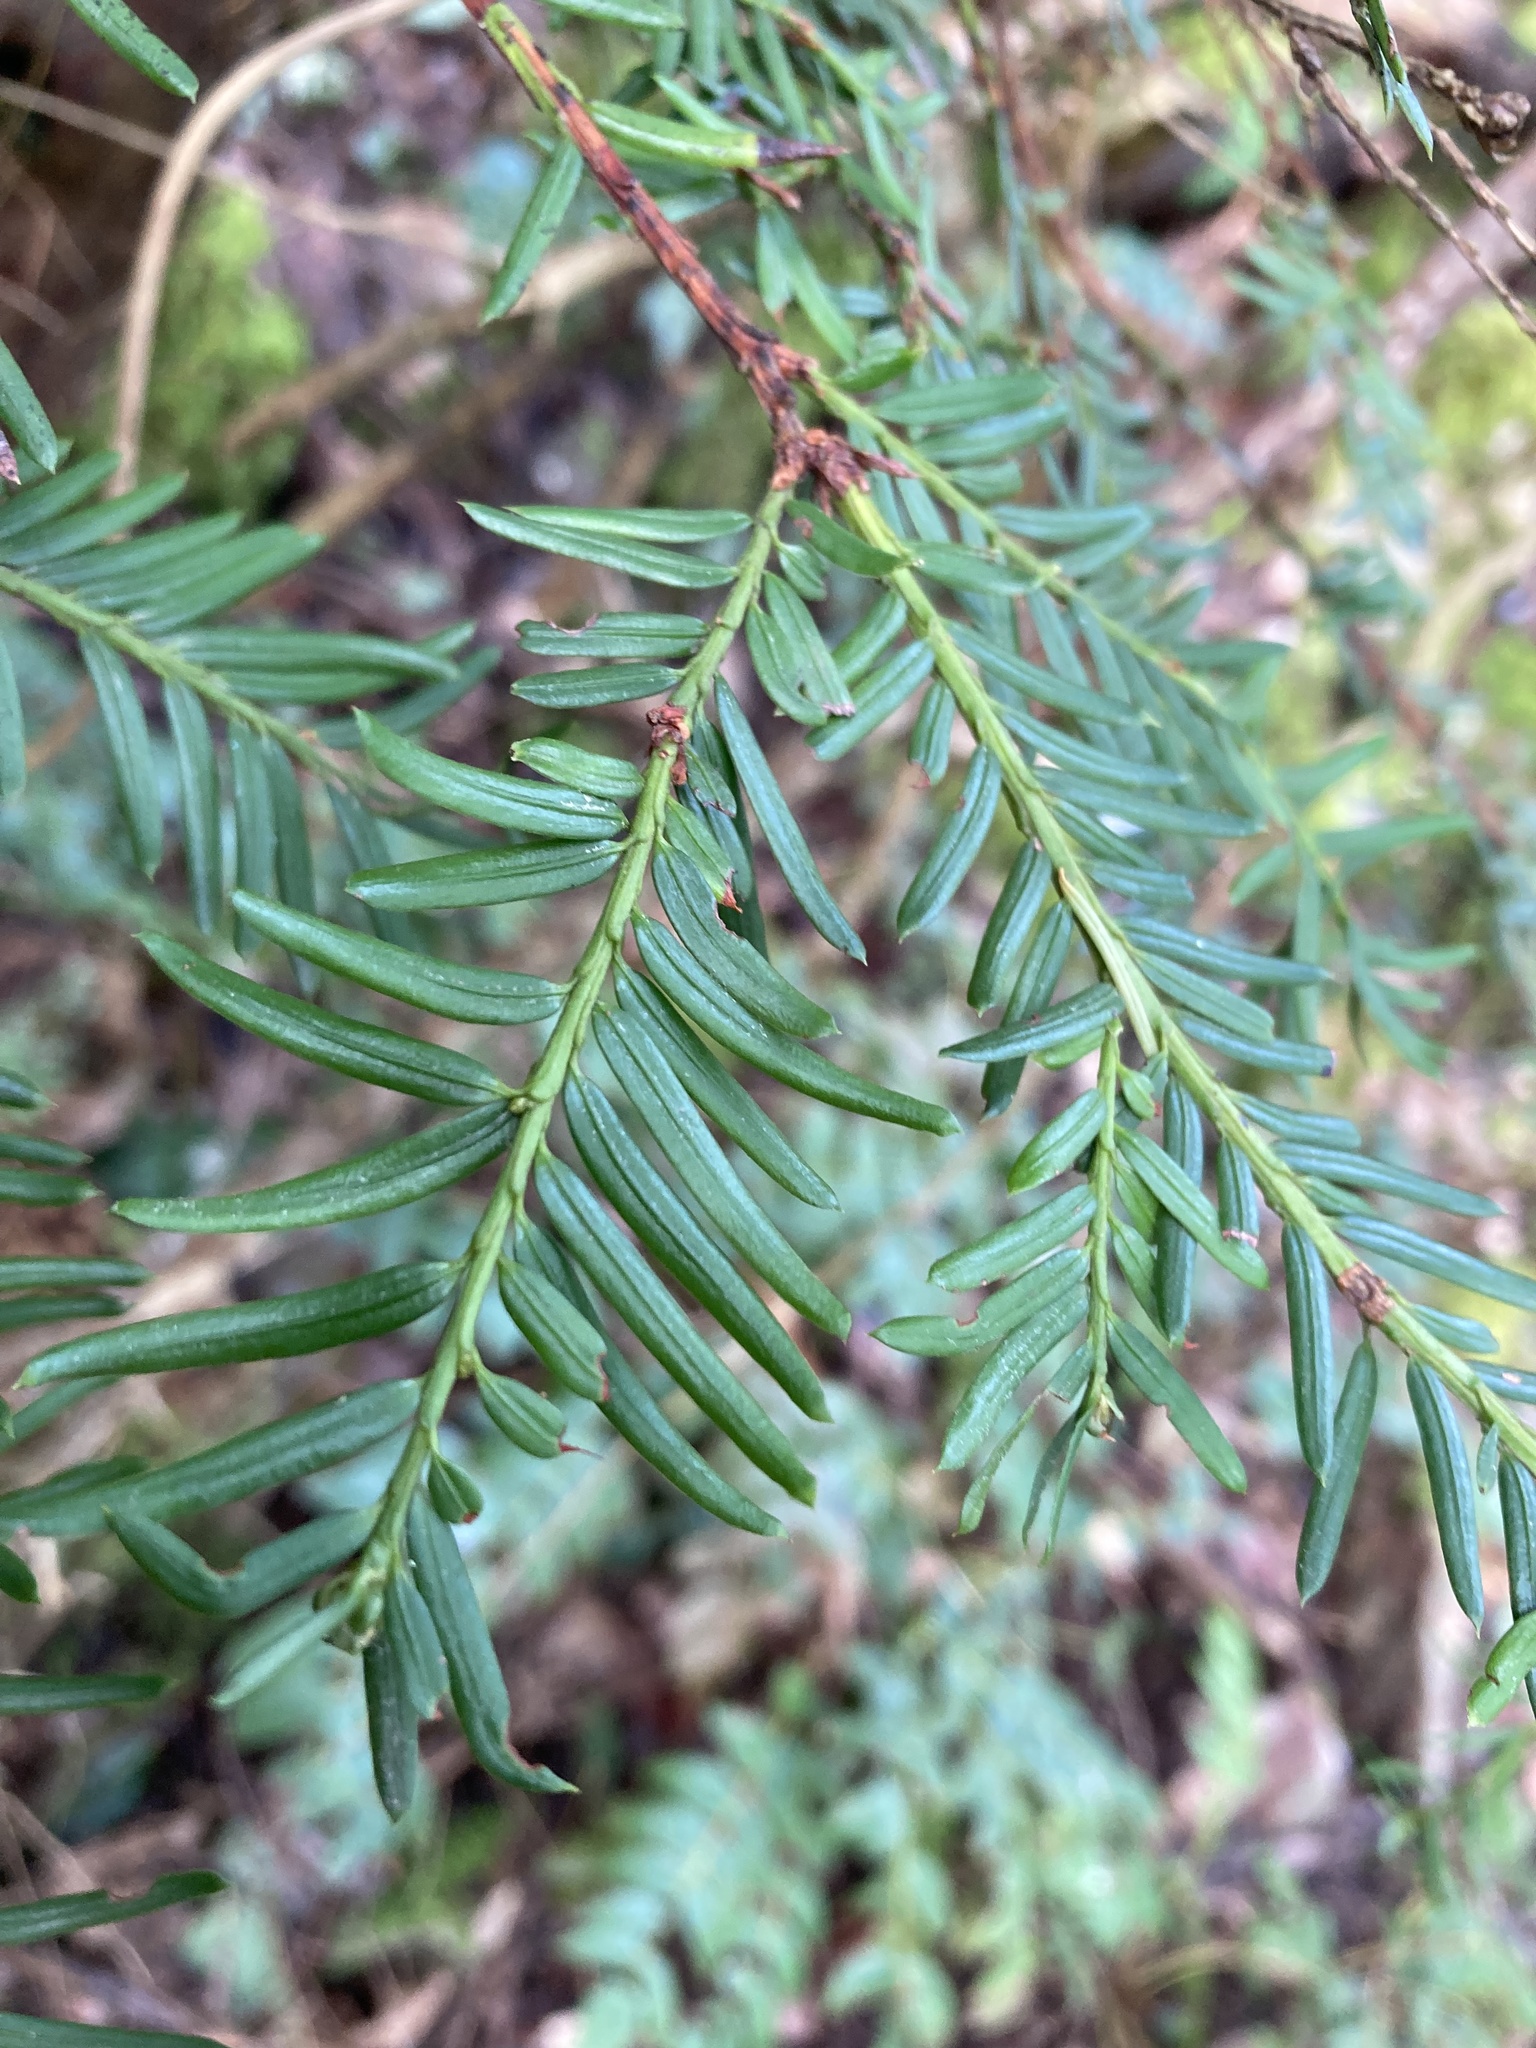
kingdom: Plantae
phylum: Tracheophyta
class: Pinopsida
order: Pinales
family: Taxaceae
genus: Taxus
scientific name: Taxus brevifolia
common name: Pacific yew
